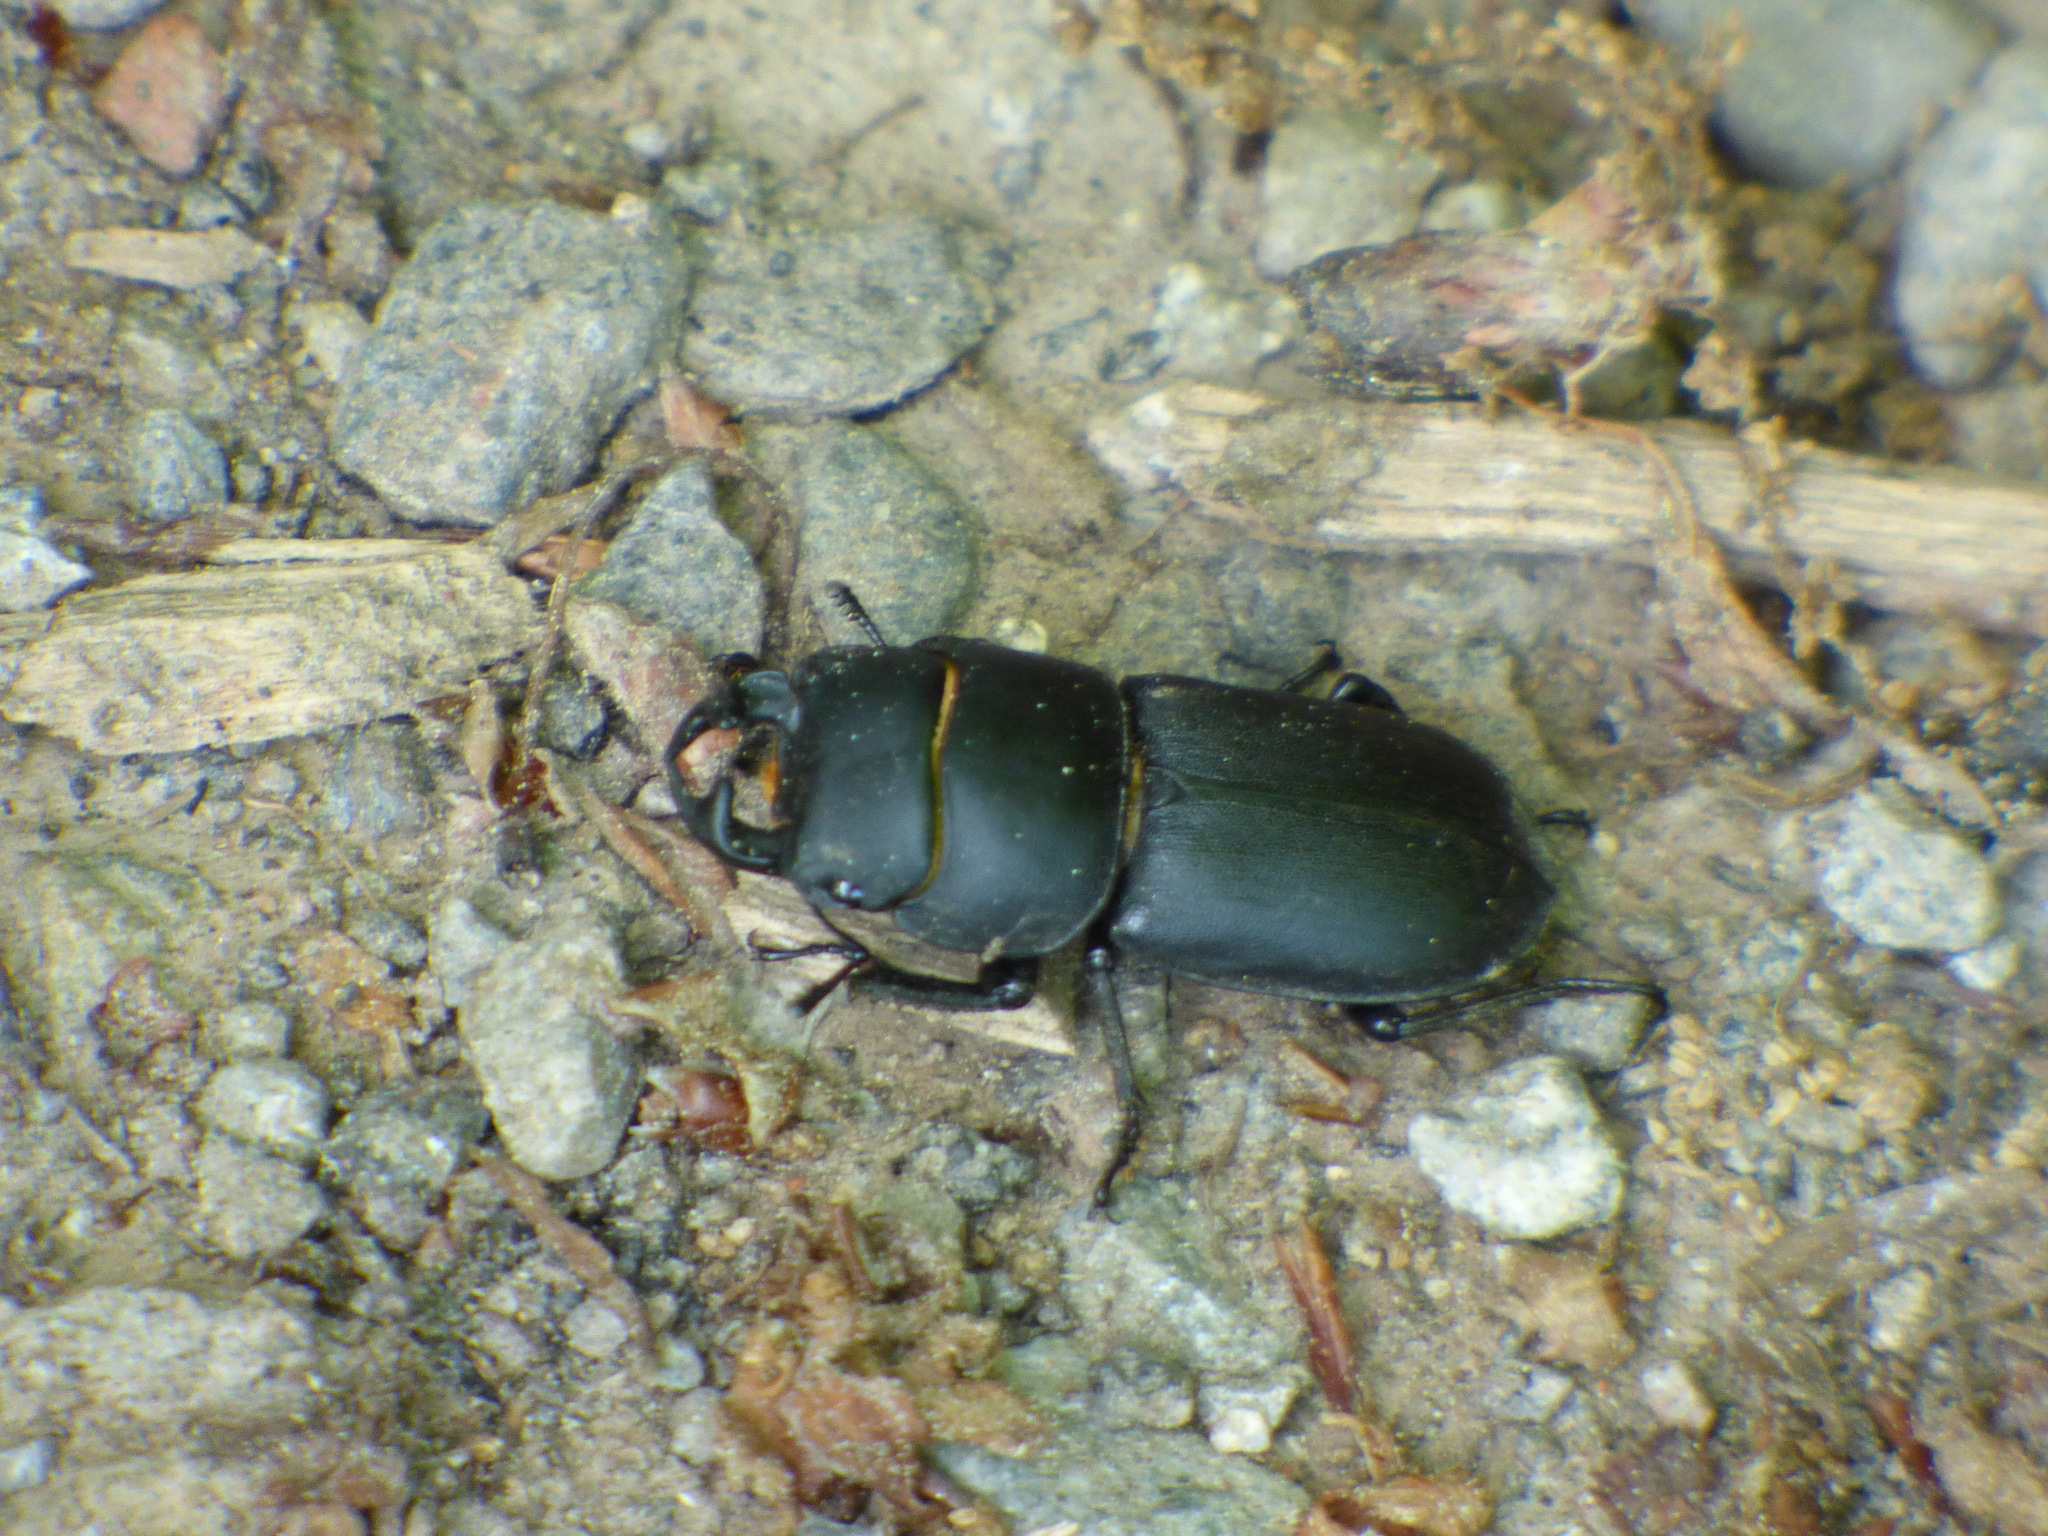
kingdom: Animalia
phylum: Arthropoda
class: Insecta
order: Coleoptera
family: Lucanidae
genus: Dorcus
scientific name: Dorcus parallelipipedus
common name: Lesser stag beetle
